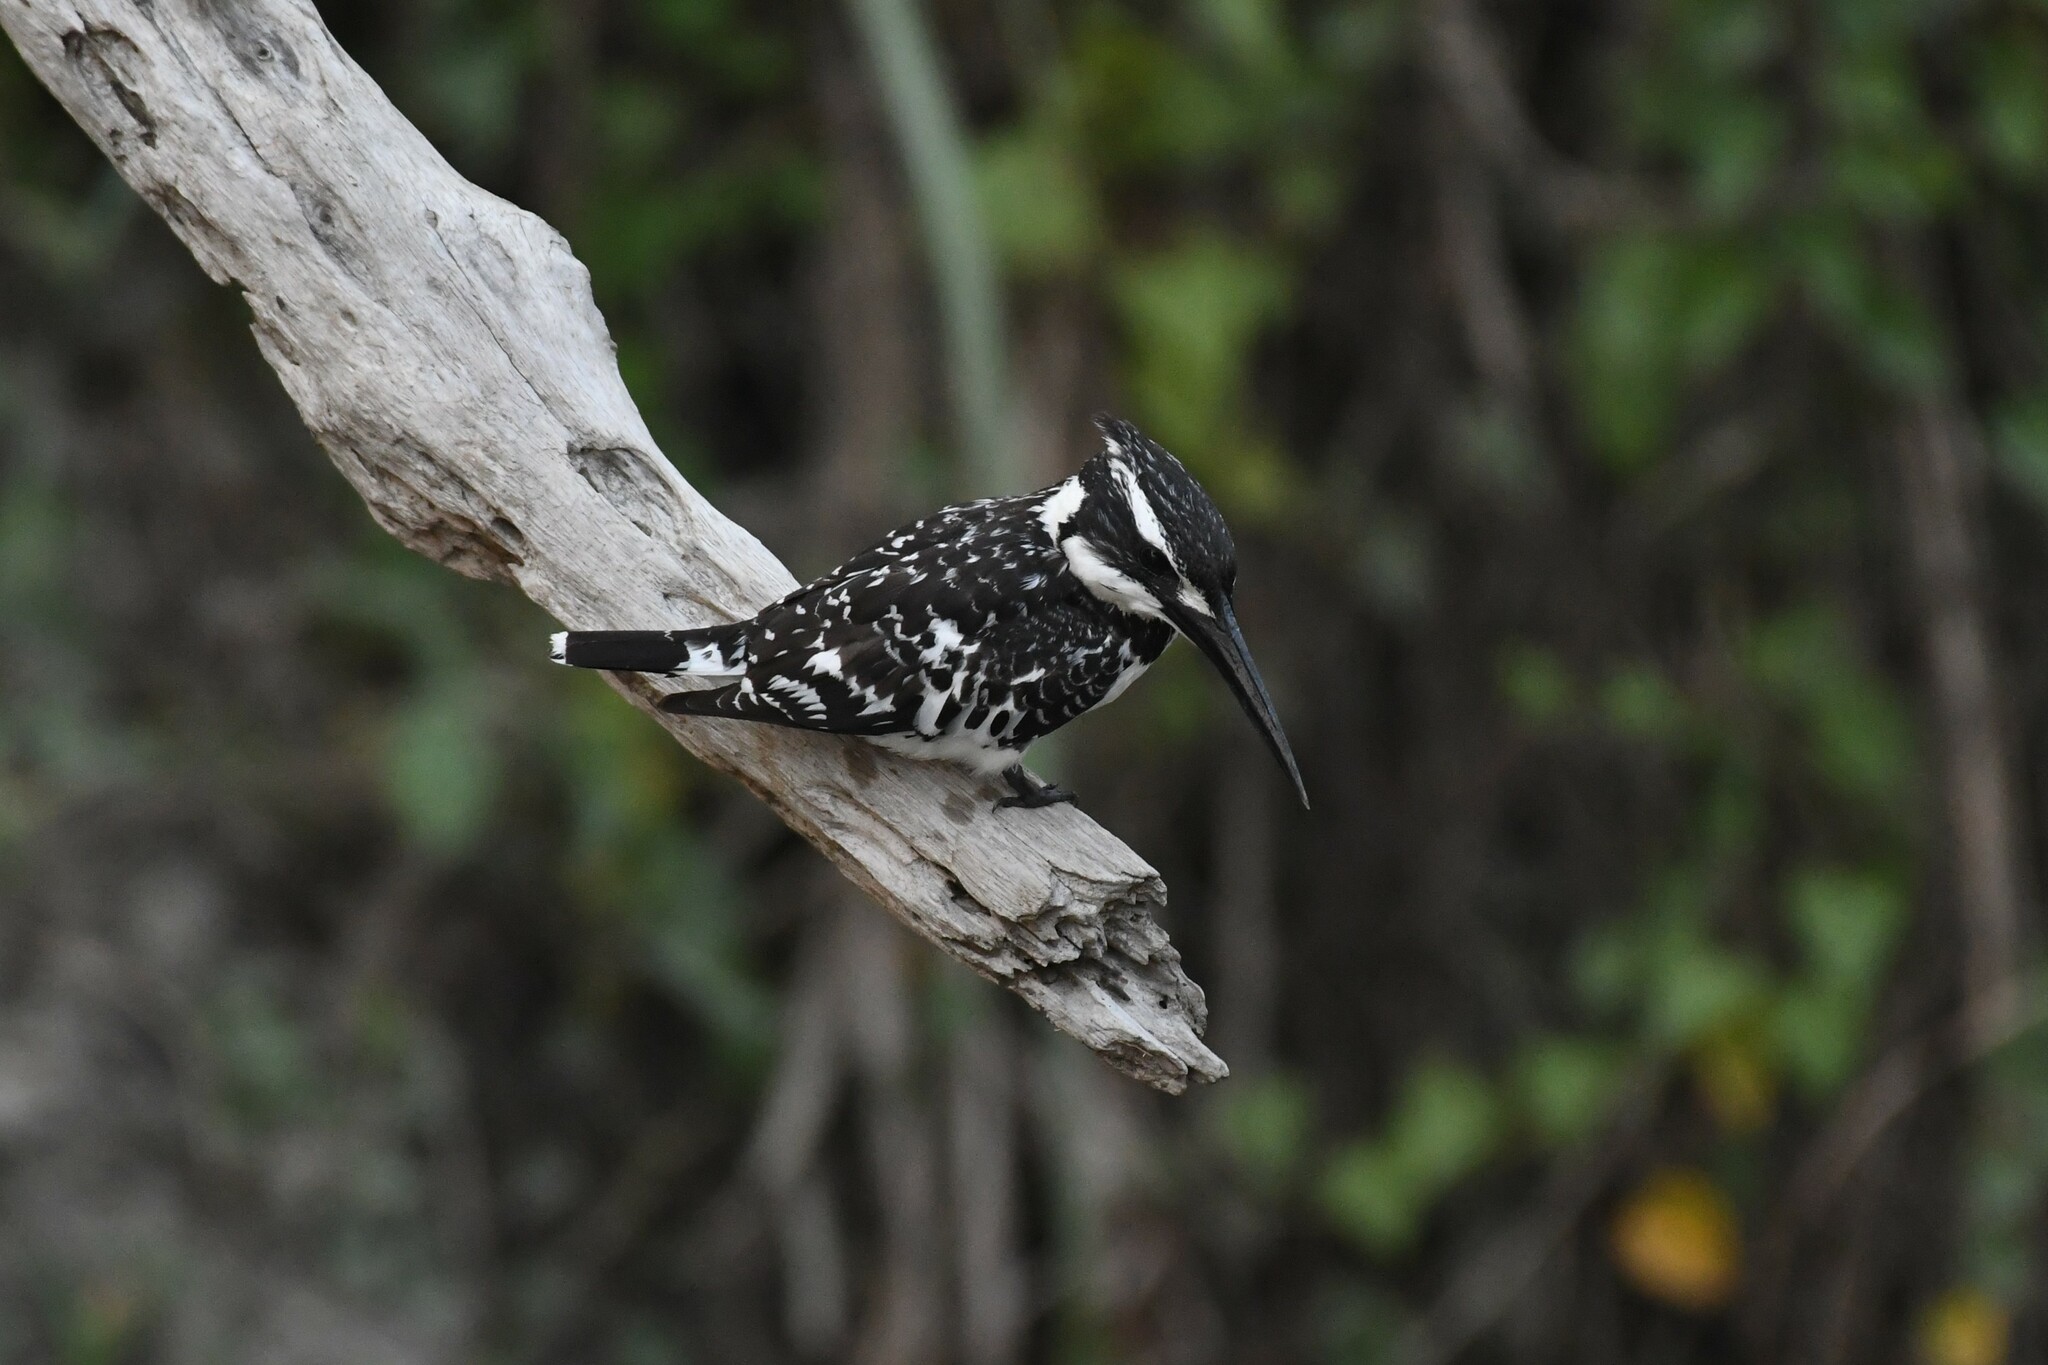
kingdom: Animalia
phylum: Chordata
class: Aves
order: Coraciiformes
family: Alcedinidae
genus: Ceryle
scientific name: Ceryle rudis
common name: Pied kingfisher
